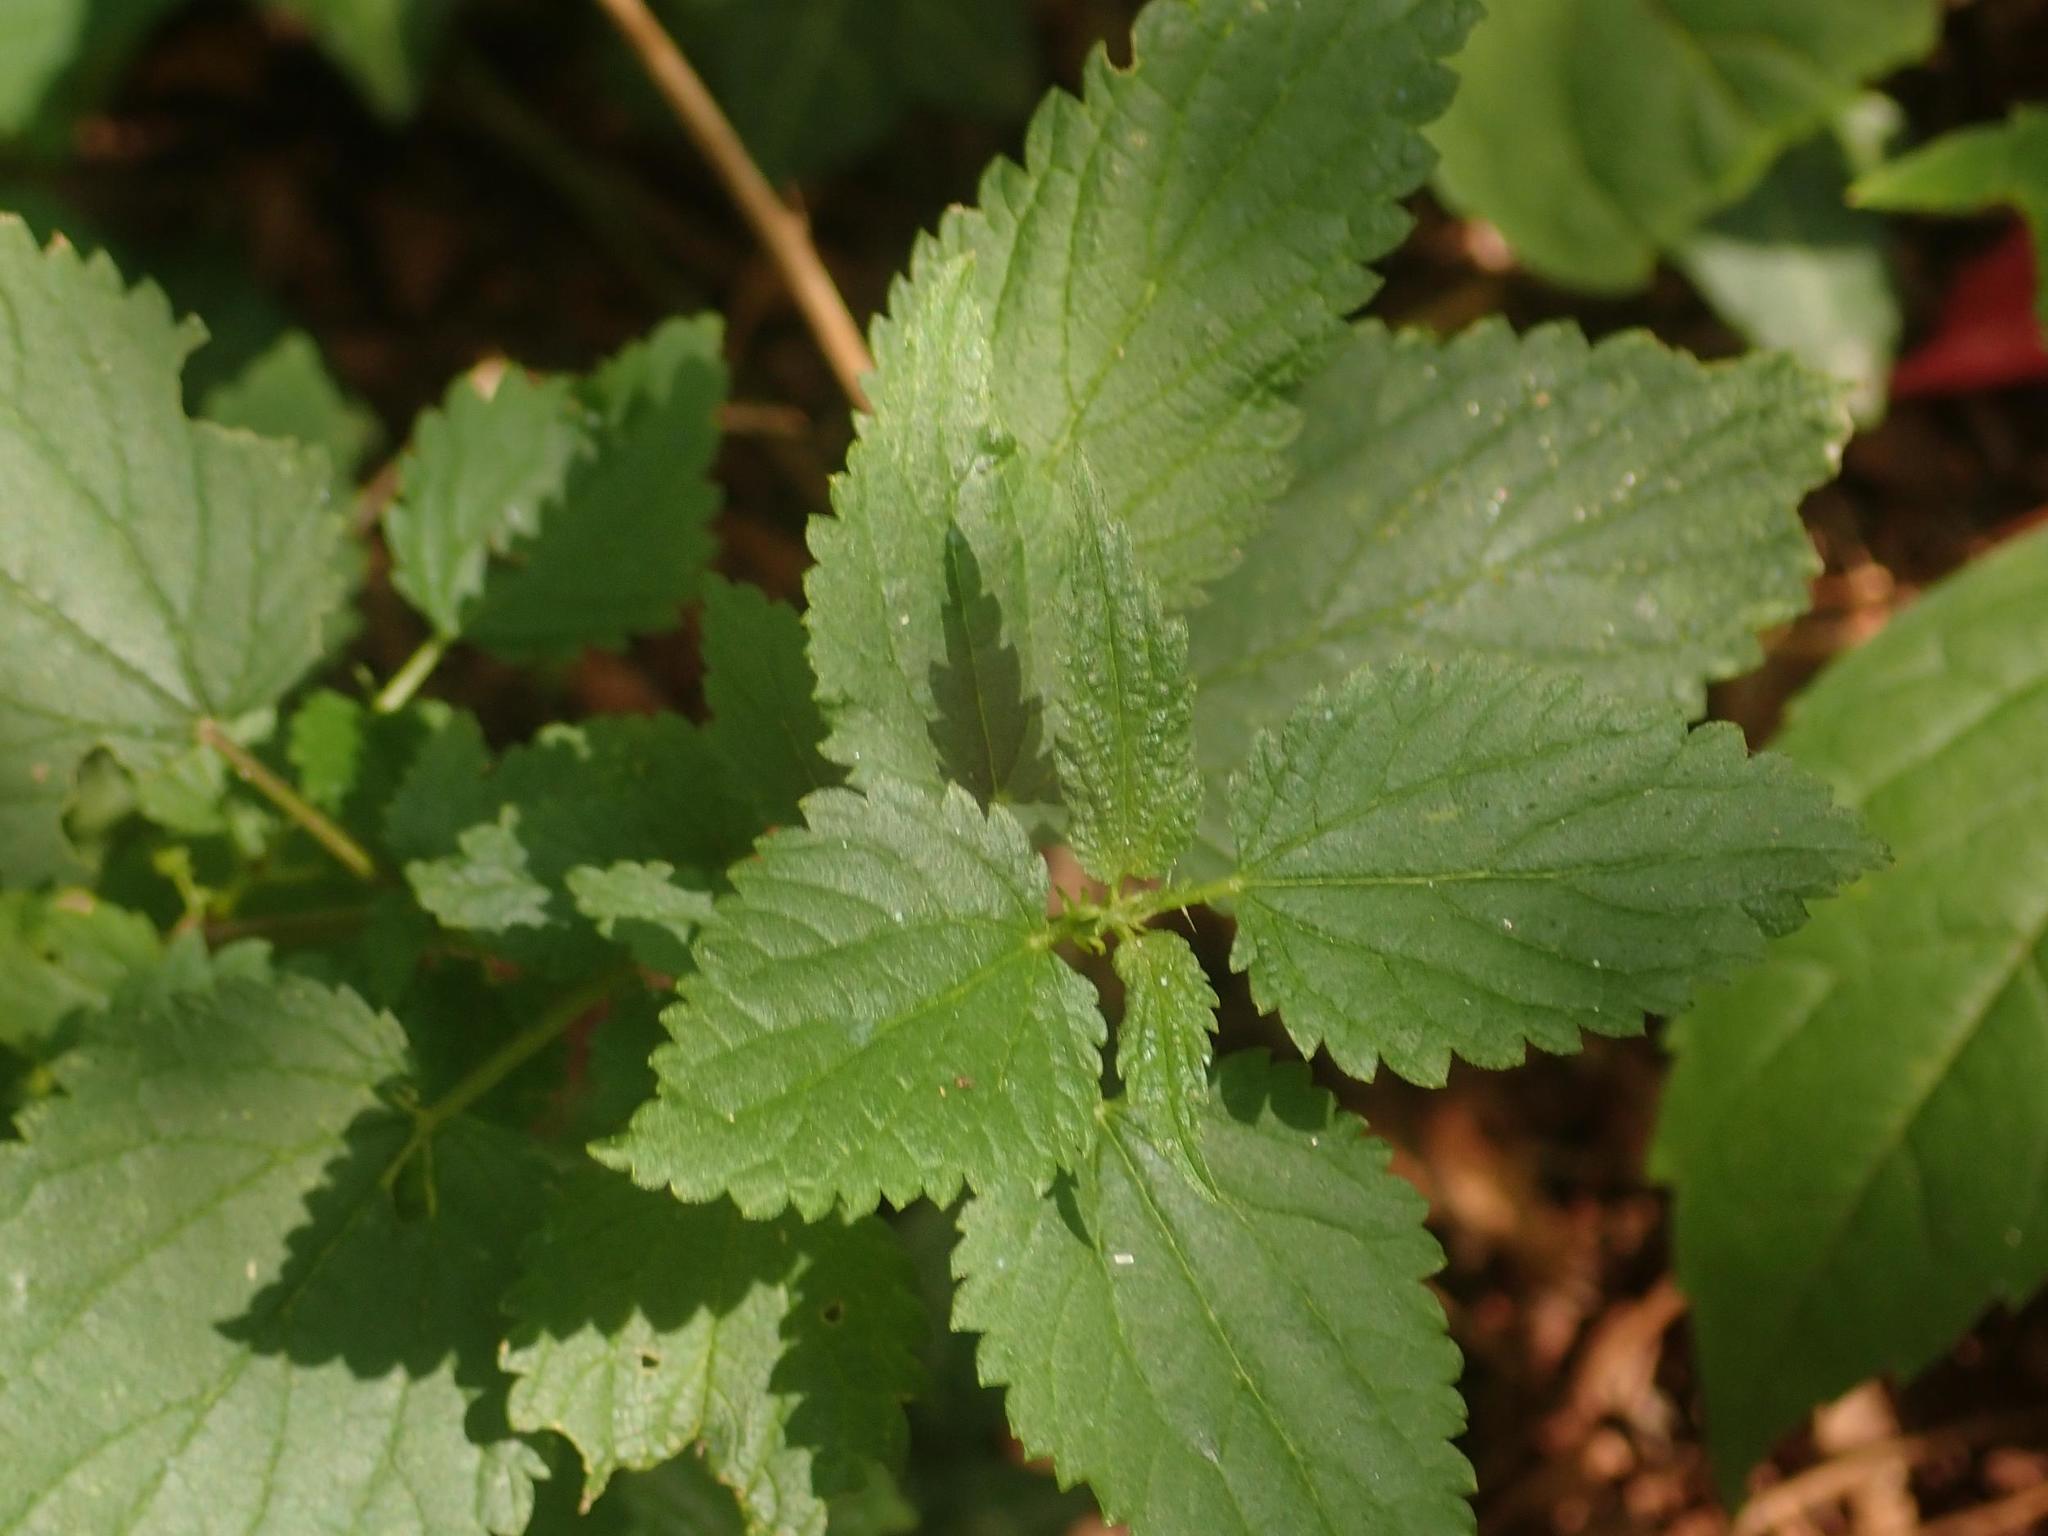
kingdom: Plantae
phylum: Tracheophyta
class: Magnoliopsida
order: Rosales
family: Urticaceae
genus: Urtica
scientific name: Urtica dioica
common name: Common nettle
